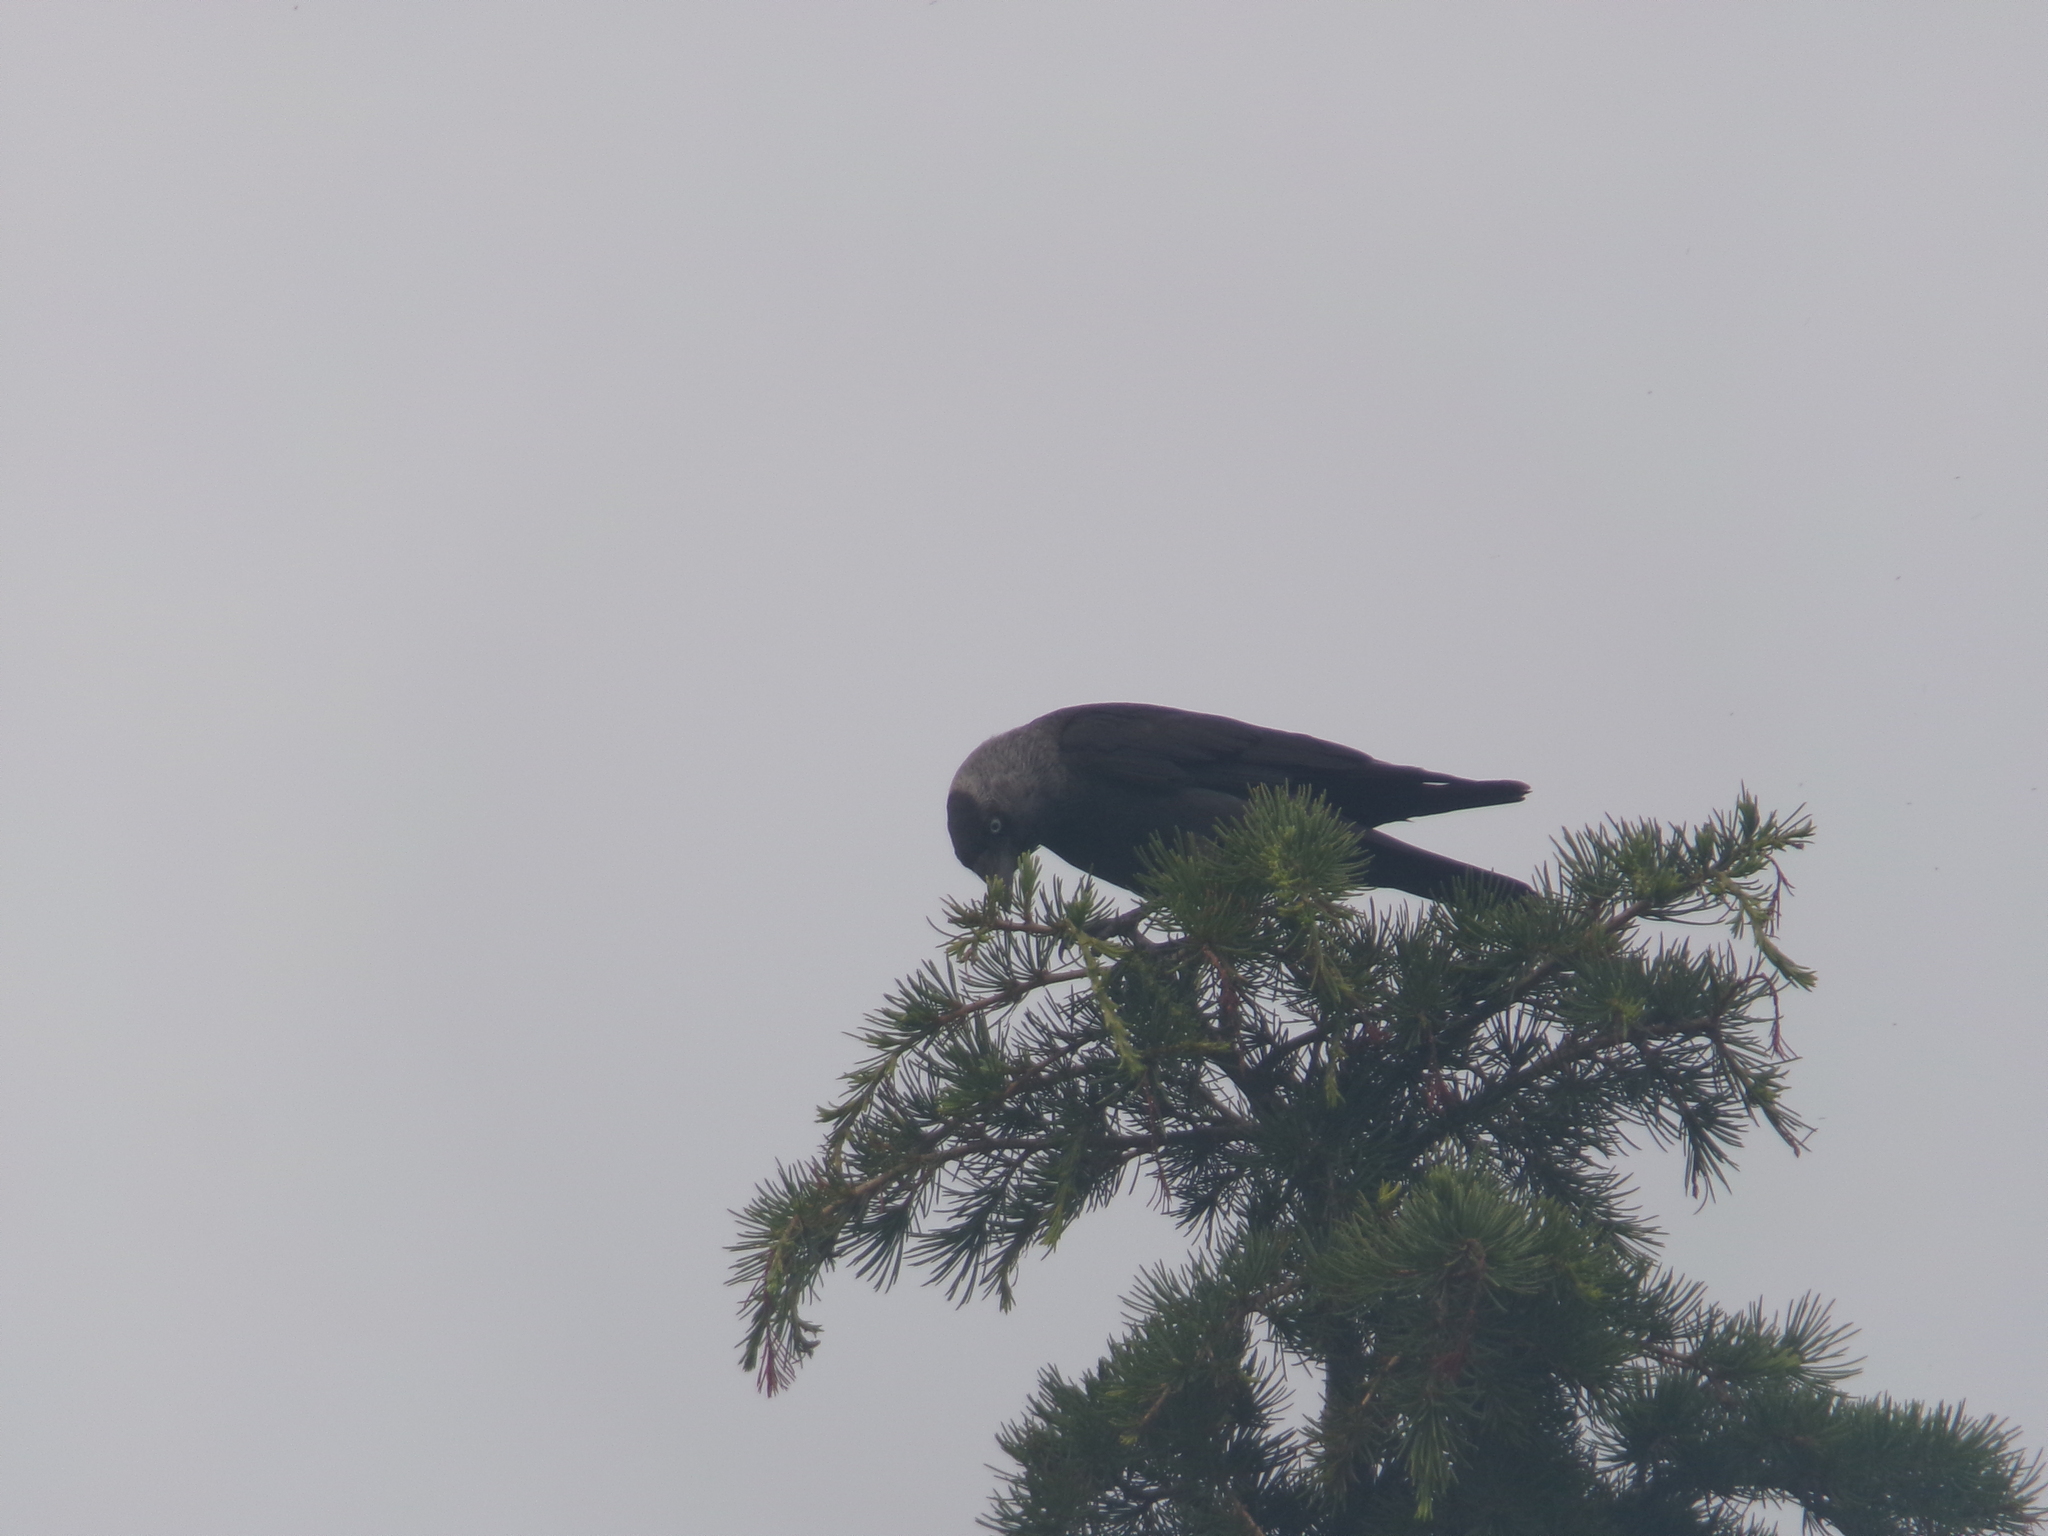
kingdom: Animalia
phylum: Chordata
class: Aves
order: Passeriformes
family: Corvidae
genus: Coloeus
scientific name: Coloeus monedula
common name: Western jackdaw
